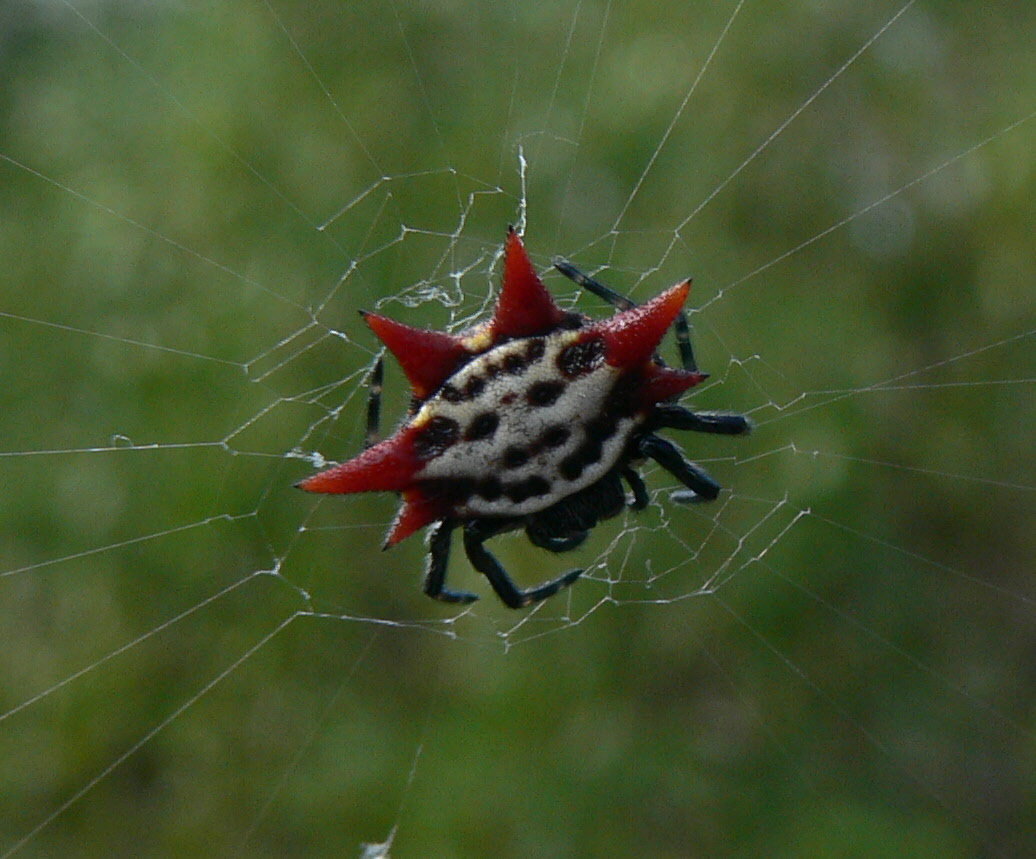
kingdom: Animalia
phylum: Arthropoda
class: Arachnida
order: Araneae
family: Araneidae
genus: Gasteracantha
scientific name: Gasteracantha cancriformis
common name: Orb weavers
